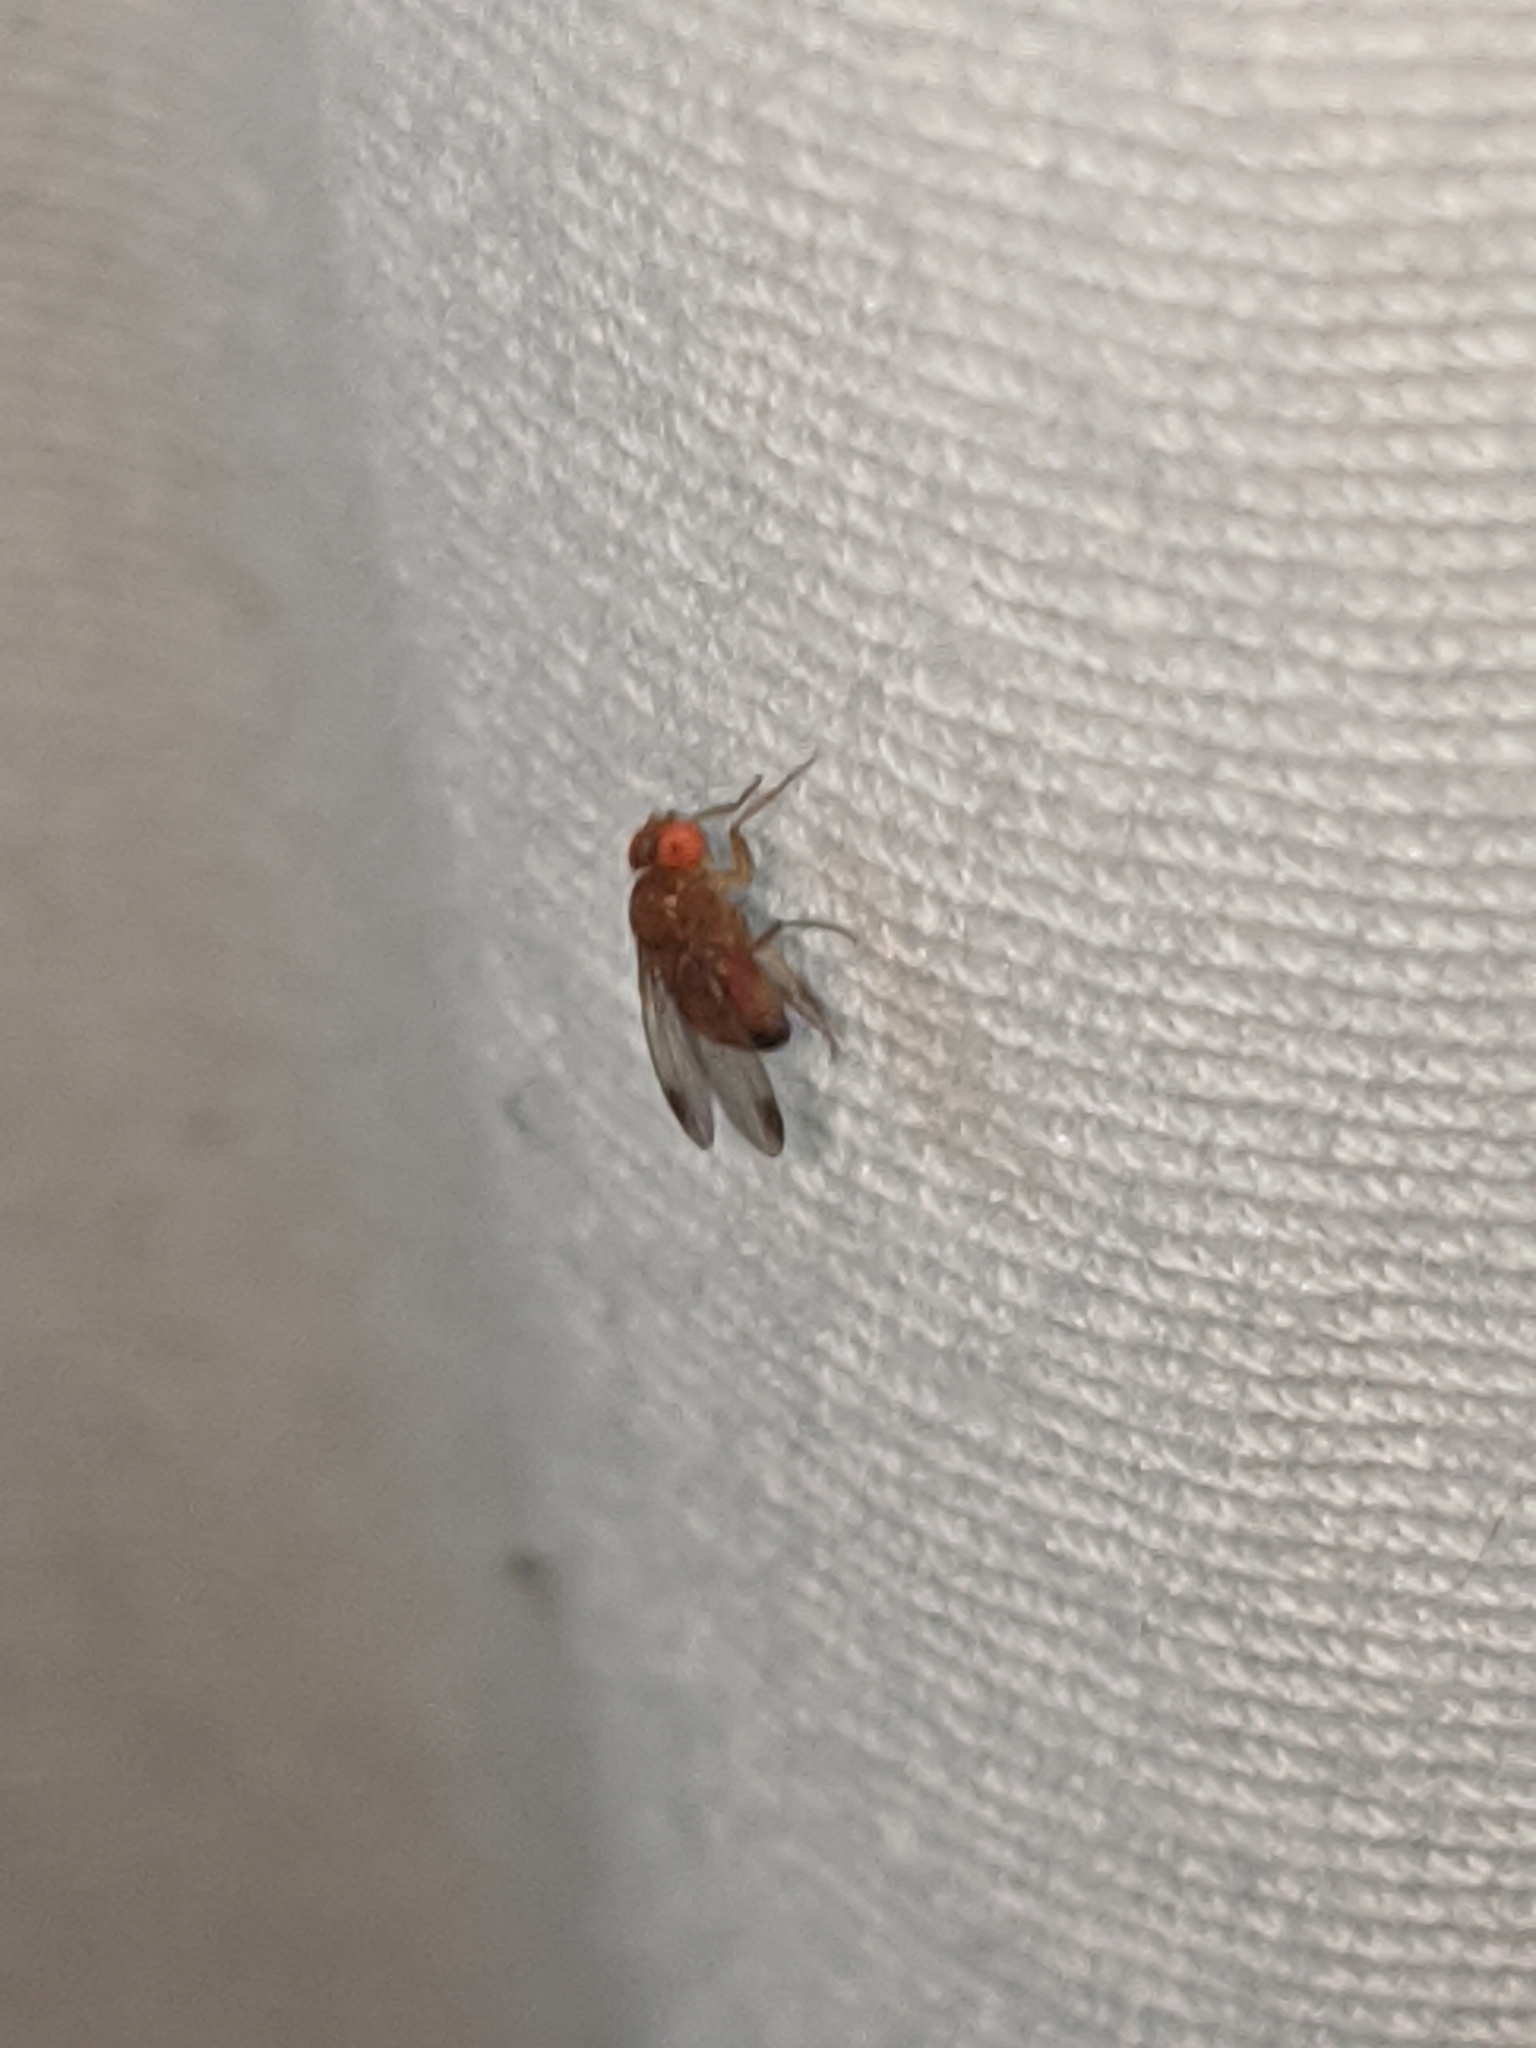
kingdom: Animalia
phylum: Arthropoda
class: Insecta
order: Diptera
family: Drosophilidae
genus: Drosophila
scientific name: Drosophila suzukii
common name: Spotted-wing drosophila
